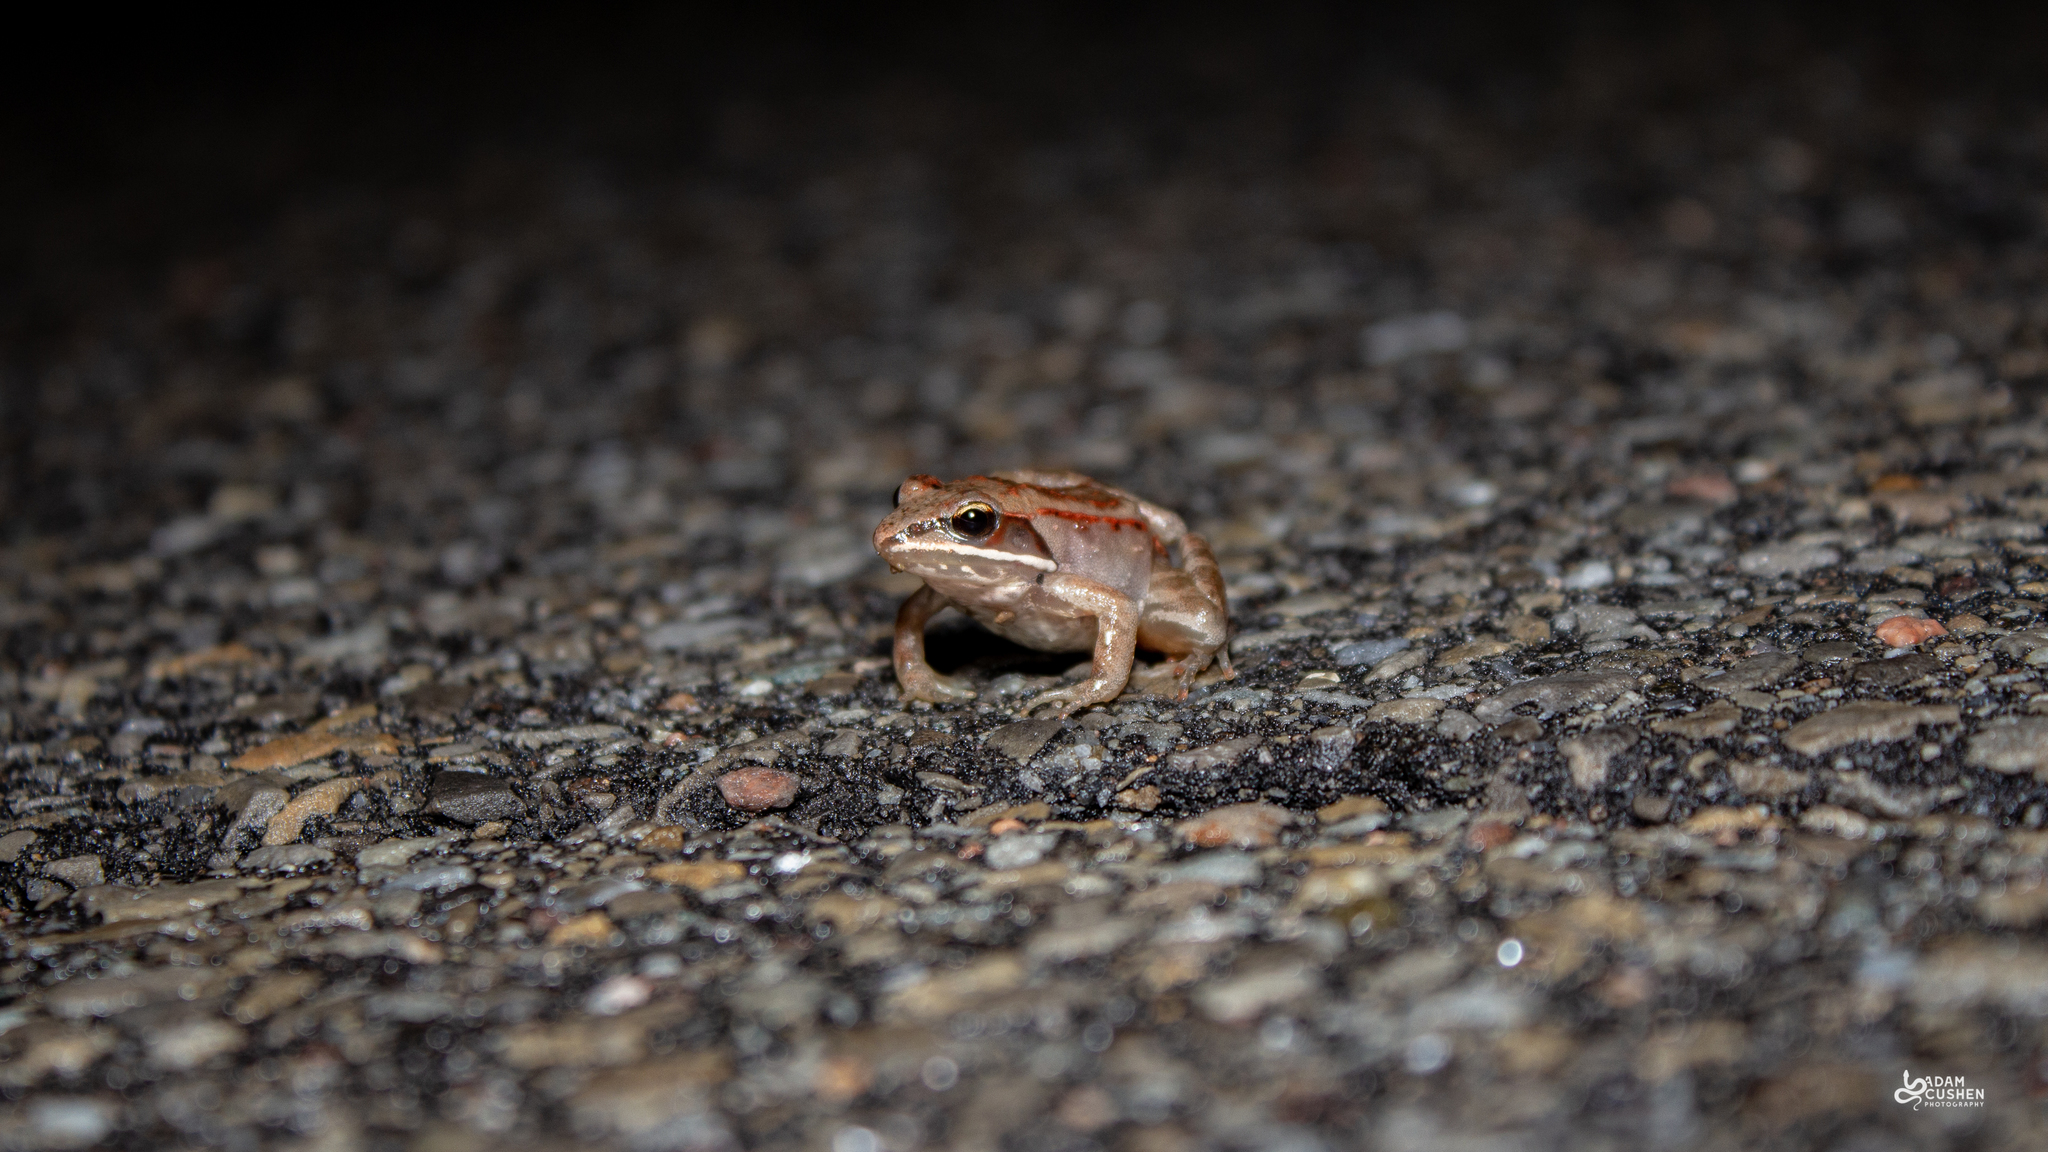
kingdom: Animalia
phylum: Chordata
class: Amphibia
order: Anura
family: Ranidae
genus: Lithobates
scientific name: Lithobates sylvaticus
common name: Wood frog
